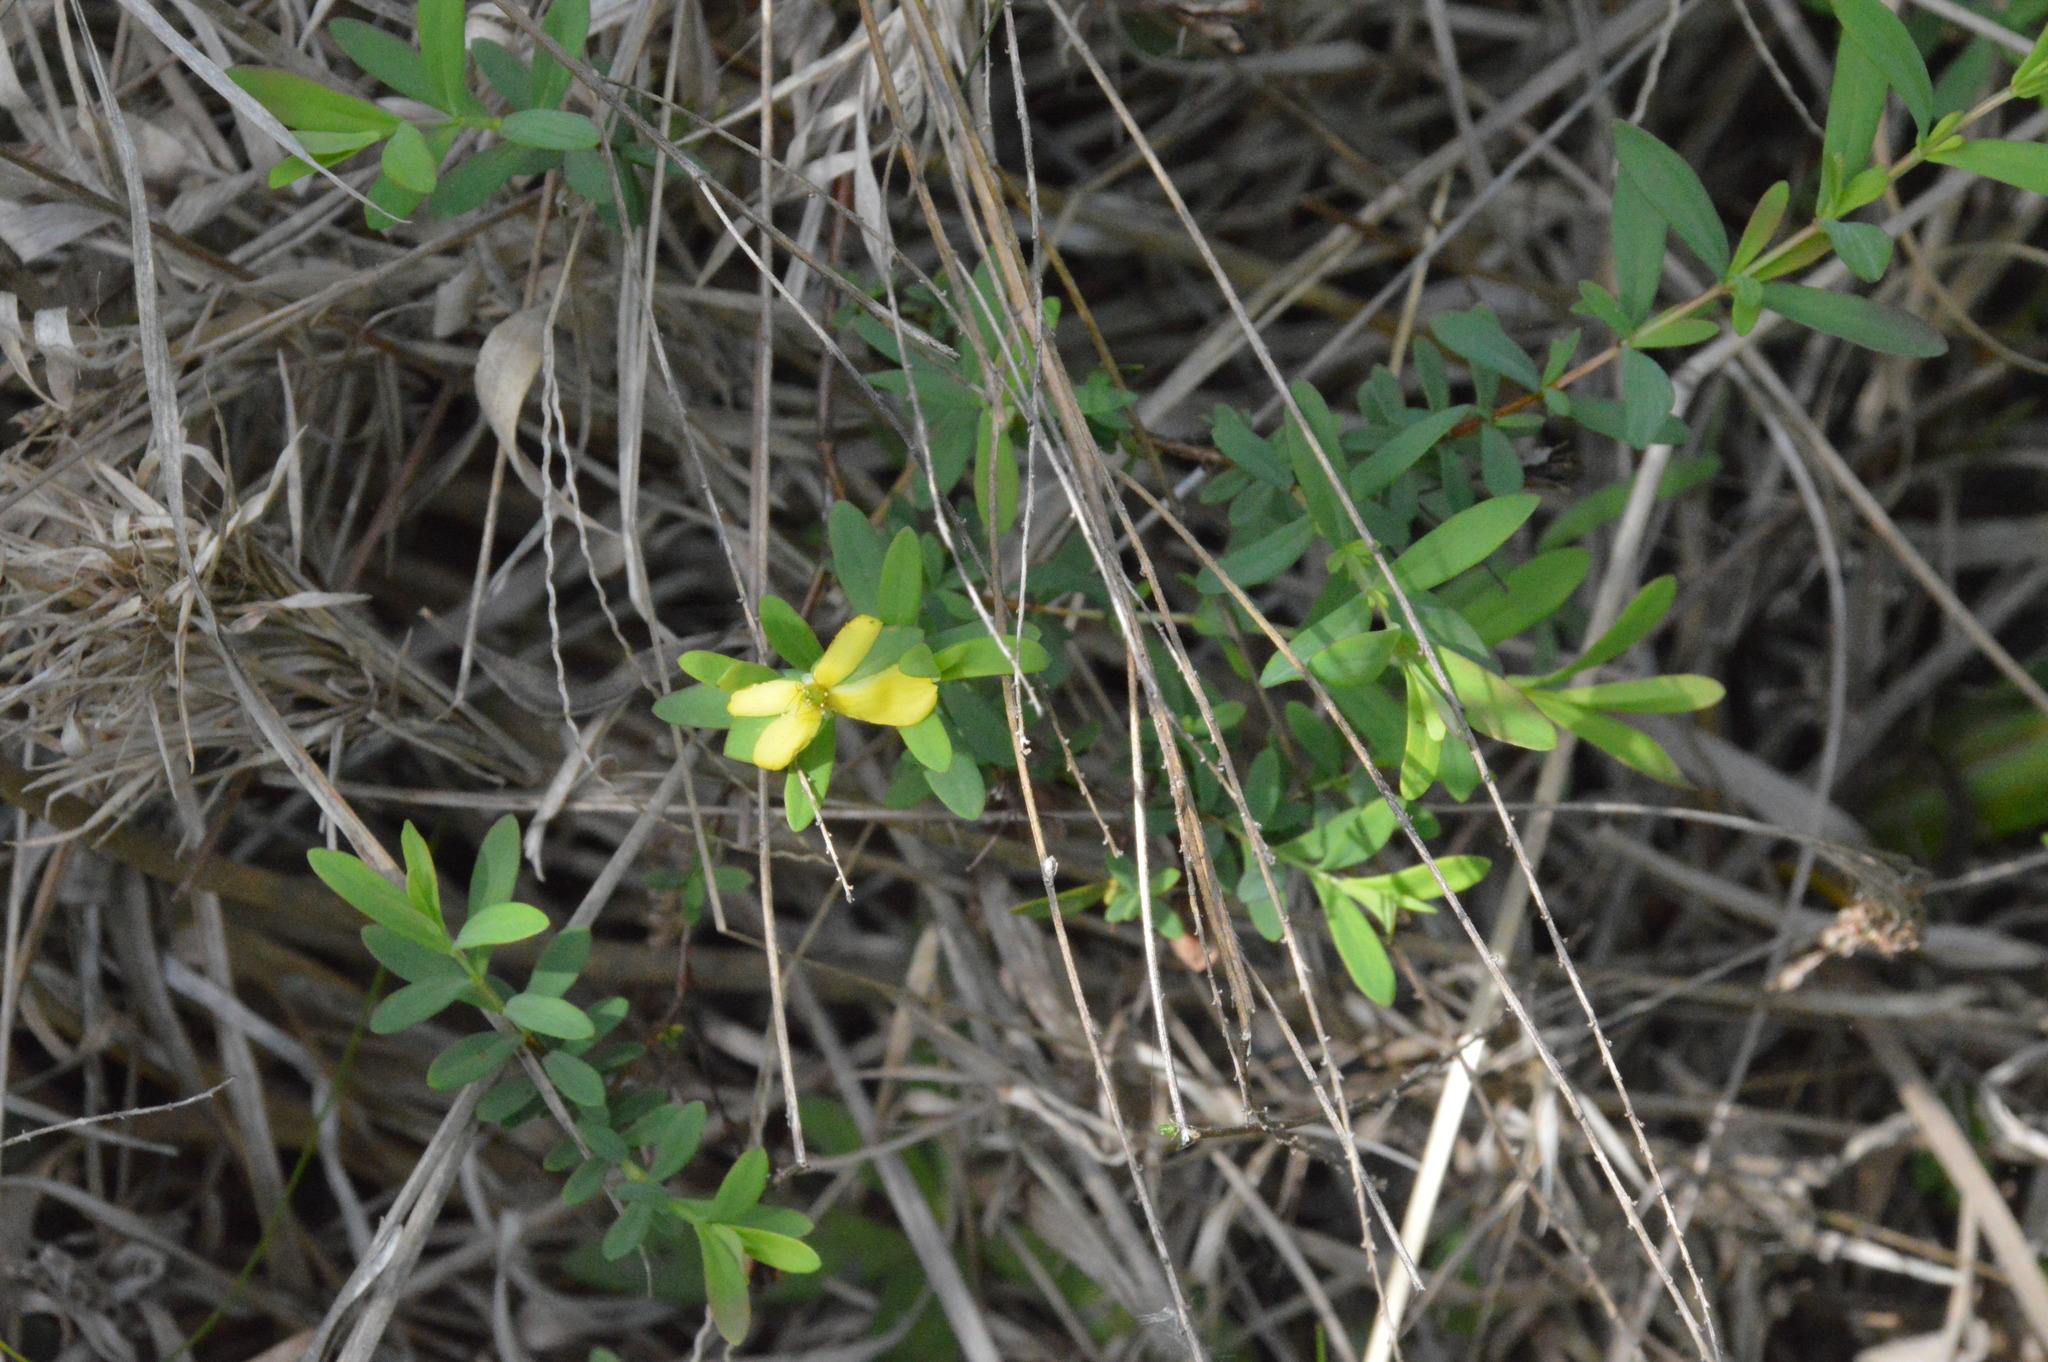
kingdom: Plantae
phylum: Tracheophyta
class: Magnoliopsida
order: Malpighiales
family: Hypericaceae
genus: Hypericum
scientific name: Hypericum hypericoides
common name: St. andrew's cross
